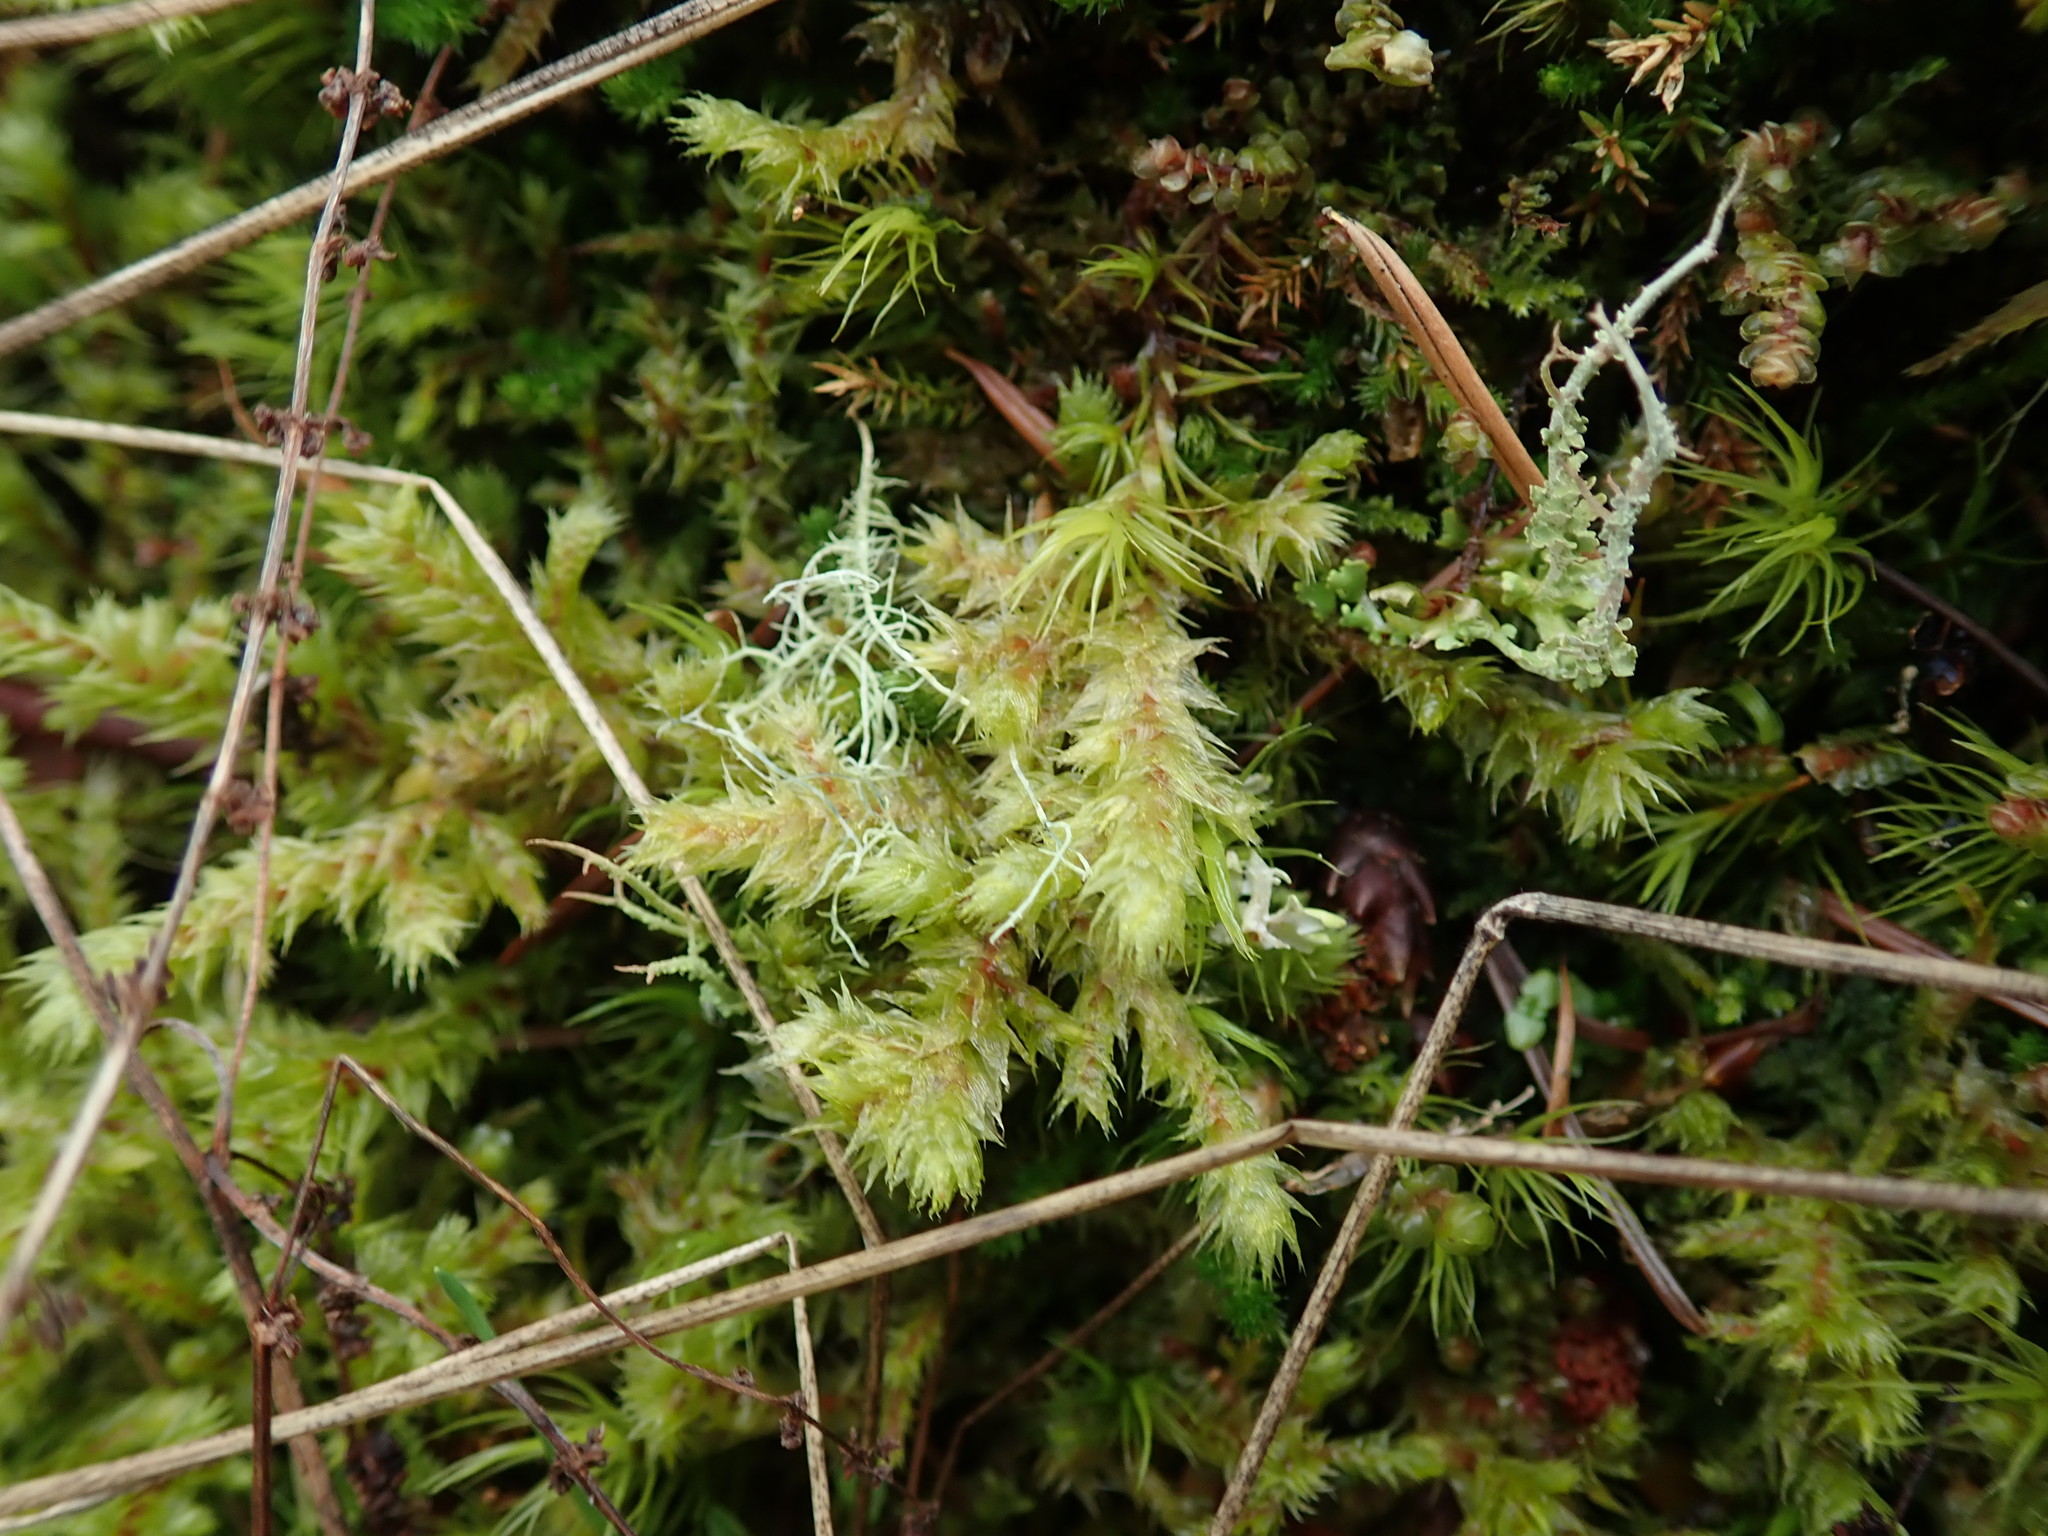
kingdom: Plantae
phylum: Bryophyta
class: Bryopsida
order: Hypnales
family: Hylocomiaceae
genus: Hylocomiadelphus
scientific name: Hylocomiadelphus triquetrus
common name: Rough goose neck moss
